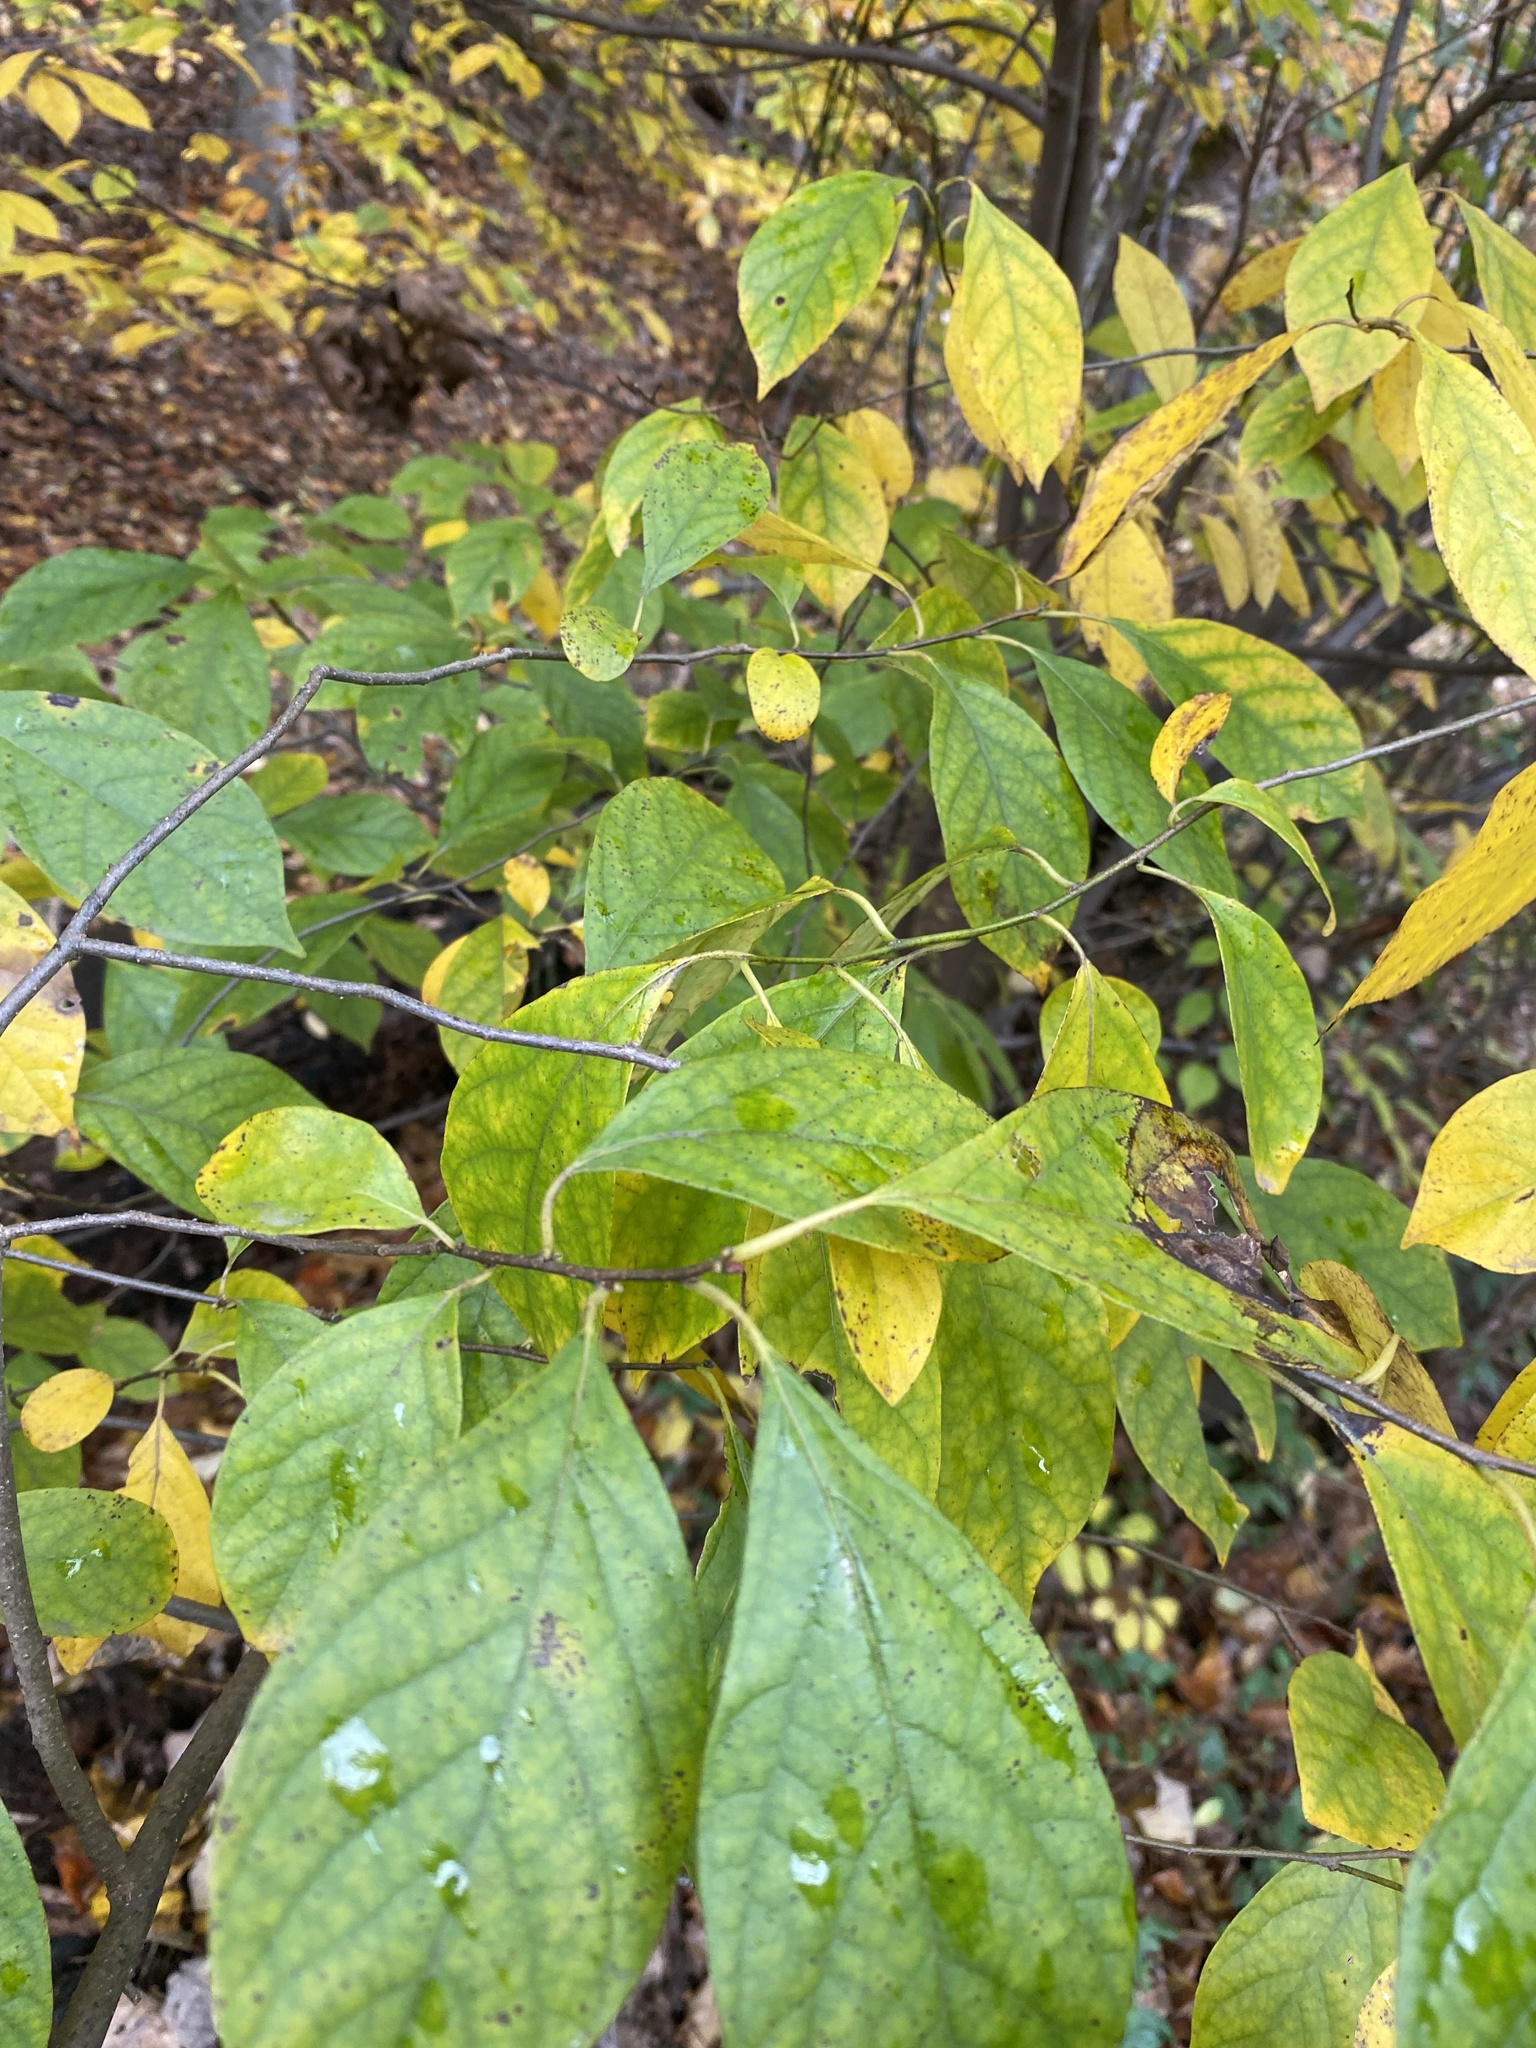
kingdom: Plantae
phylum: Tracheophyta
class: Magnoliopsida
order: Laurales
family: Lauraceae
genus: Lindera
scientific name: Lindera benzoin
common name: Spicebush
